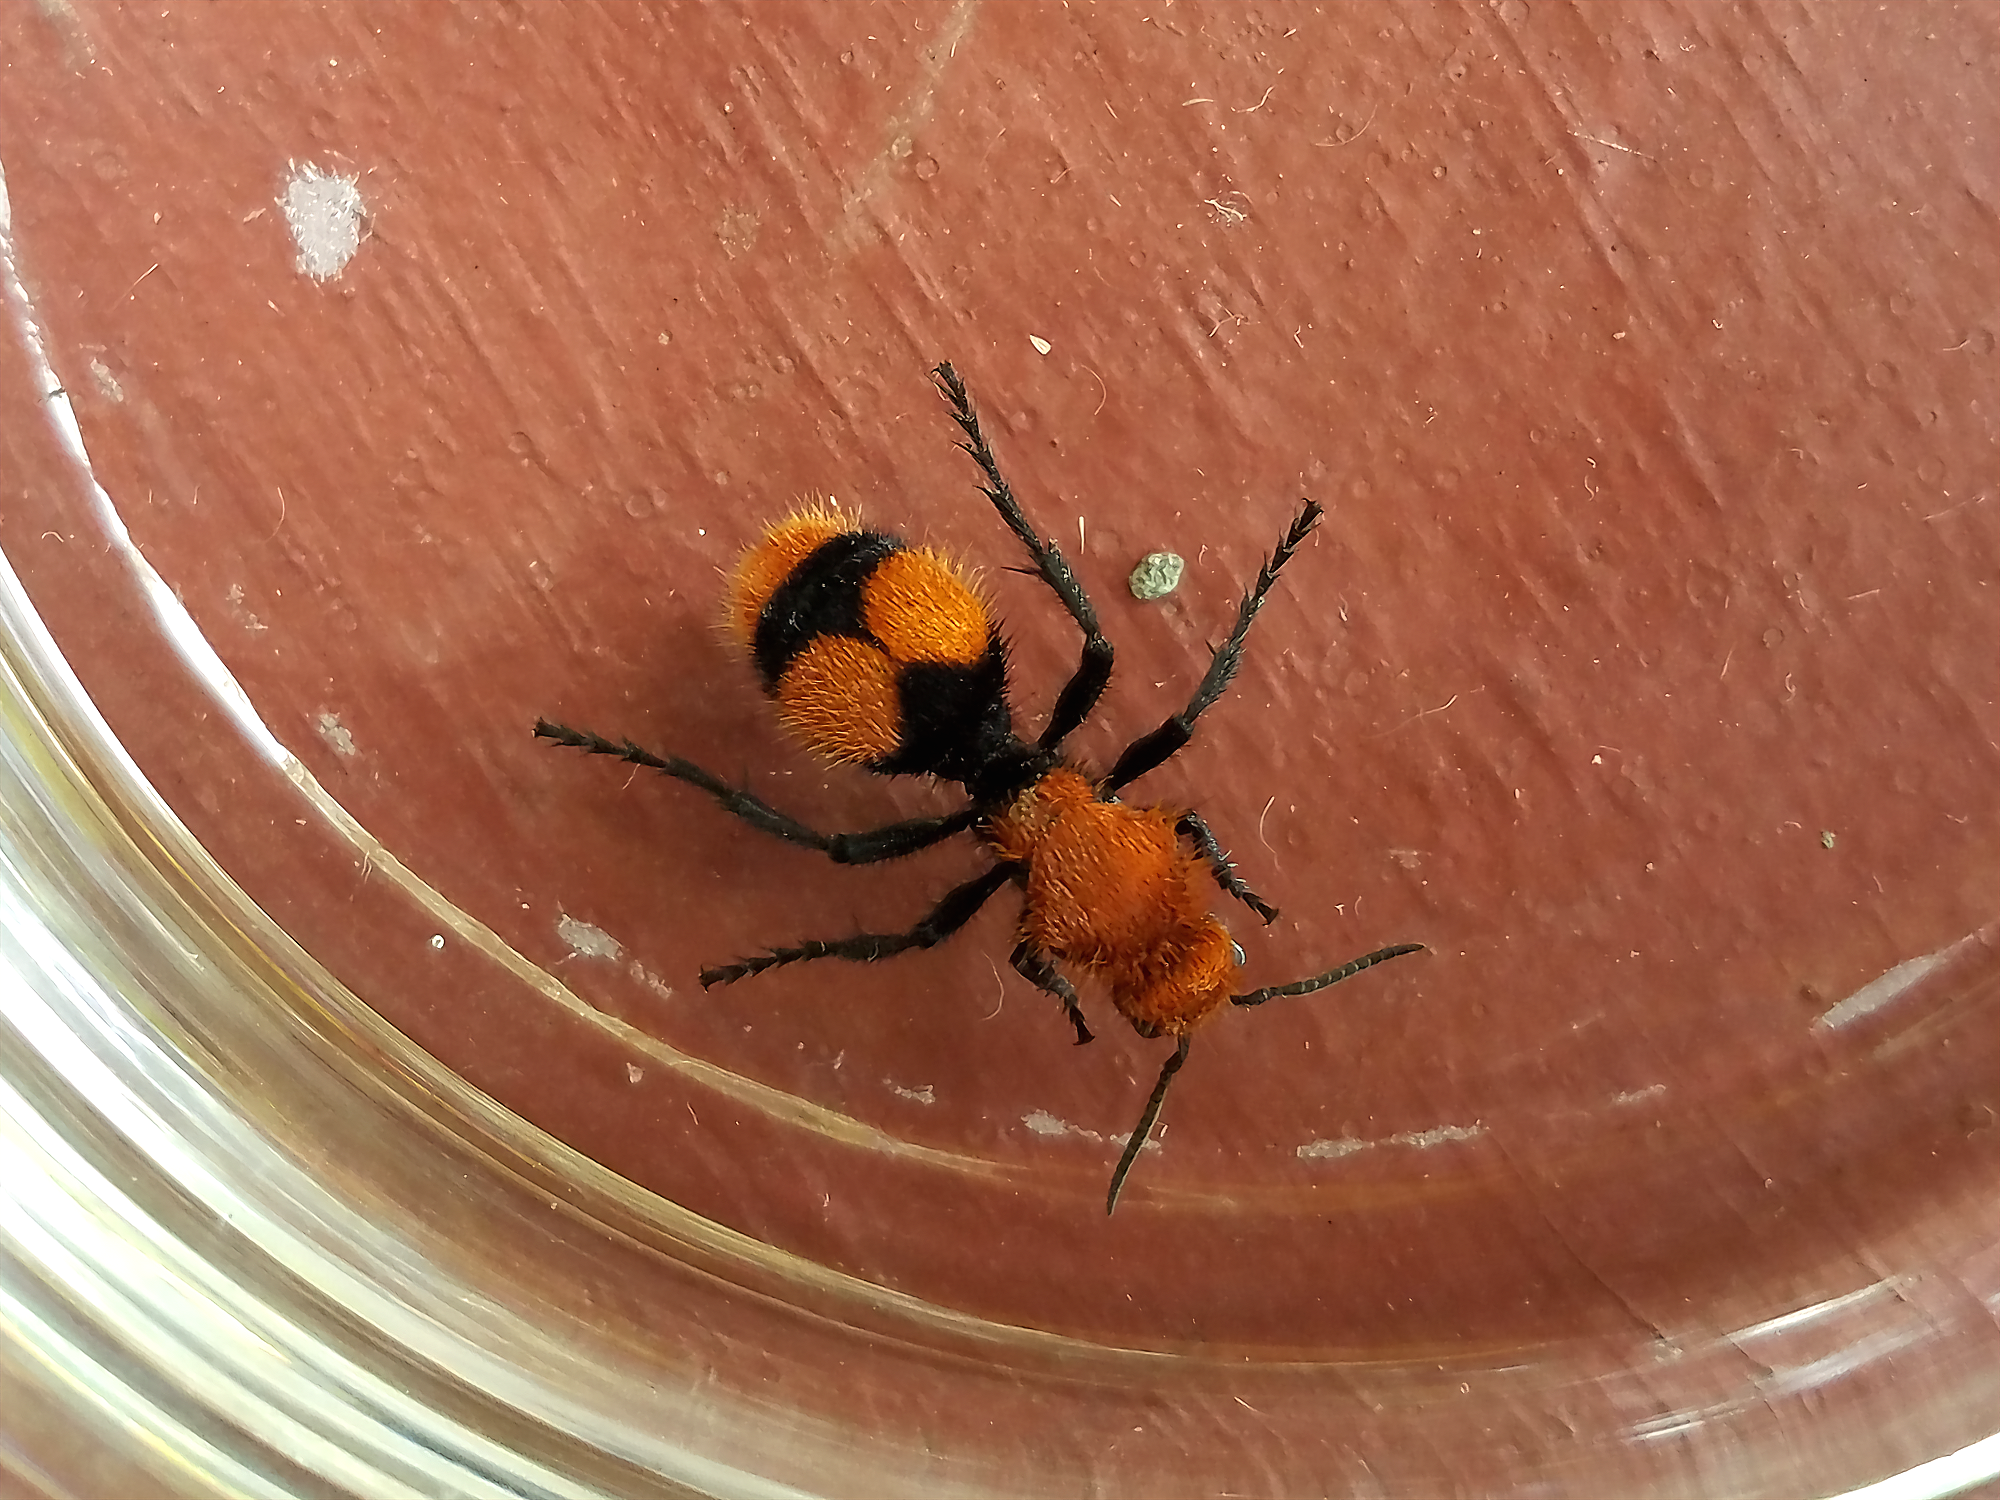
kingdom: Animalia
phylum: Arthropoda
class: Insecta
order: Hymenoptera
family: Mutillidae
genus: Dasymutilla
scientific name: Dasymutilla occidentalis
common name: Common eastern velvet ant
